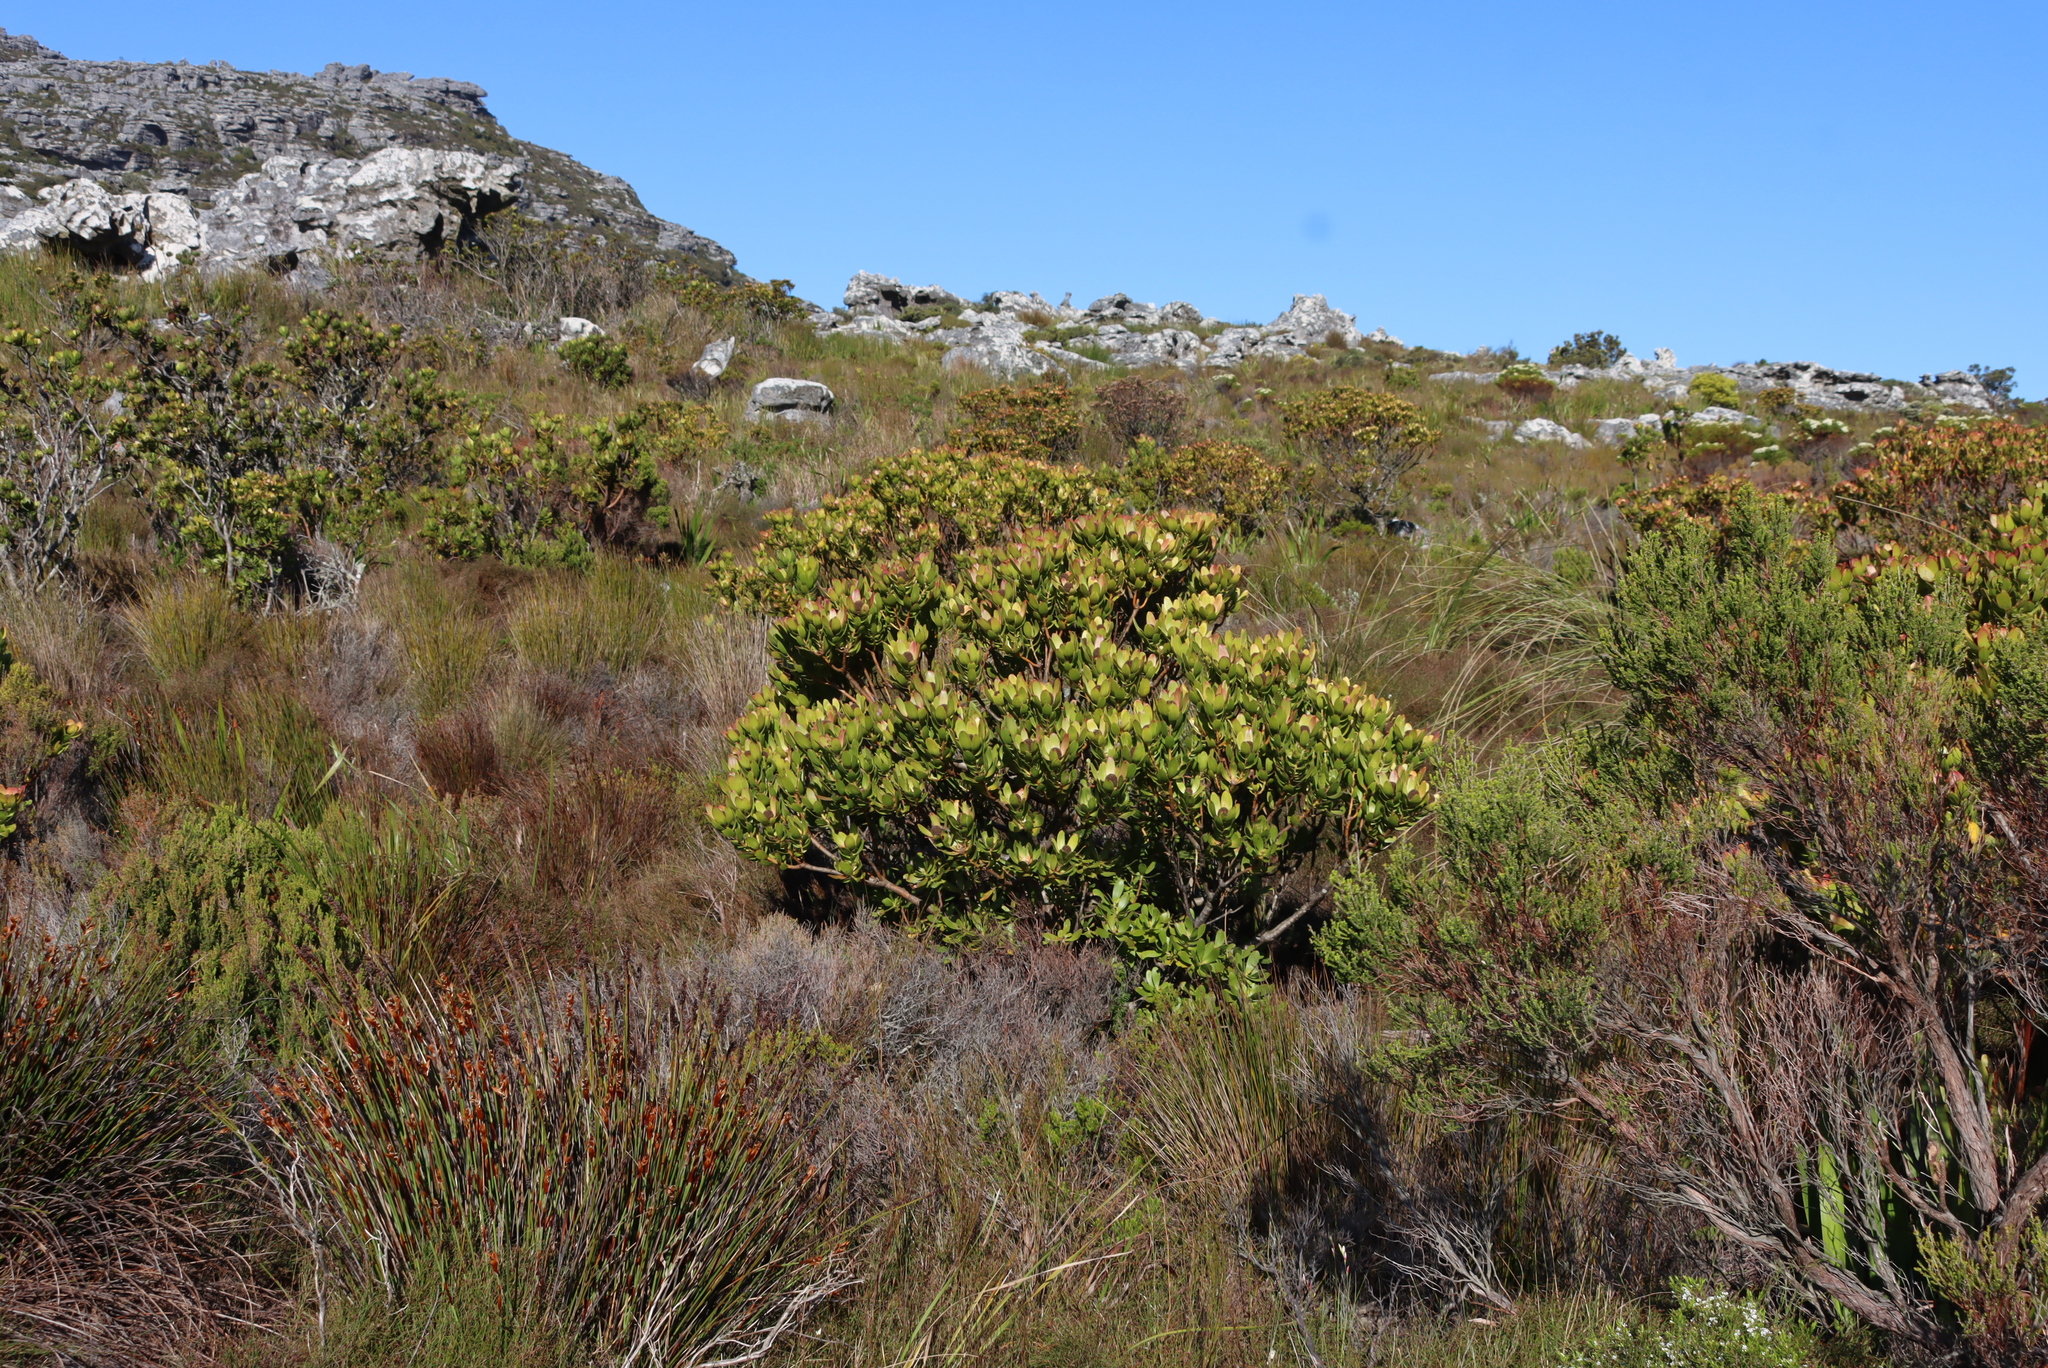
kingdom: Plantae
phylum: Tracheophyta
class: Magnoliopsida
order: Proteales
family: Proteaceae
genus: Leucadendron
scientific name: Leucadendron strobilinum
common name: Mountain rose
